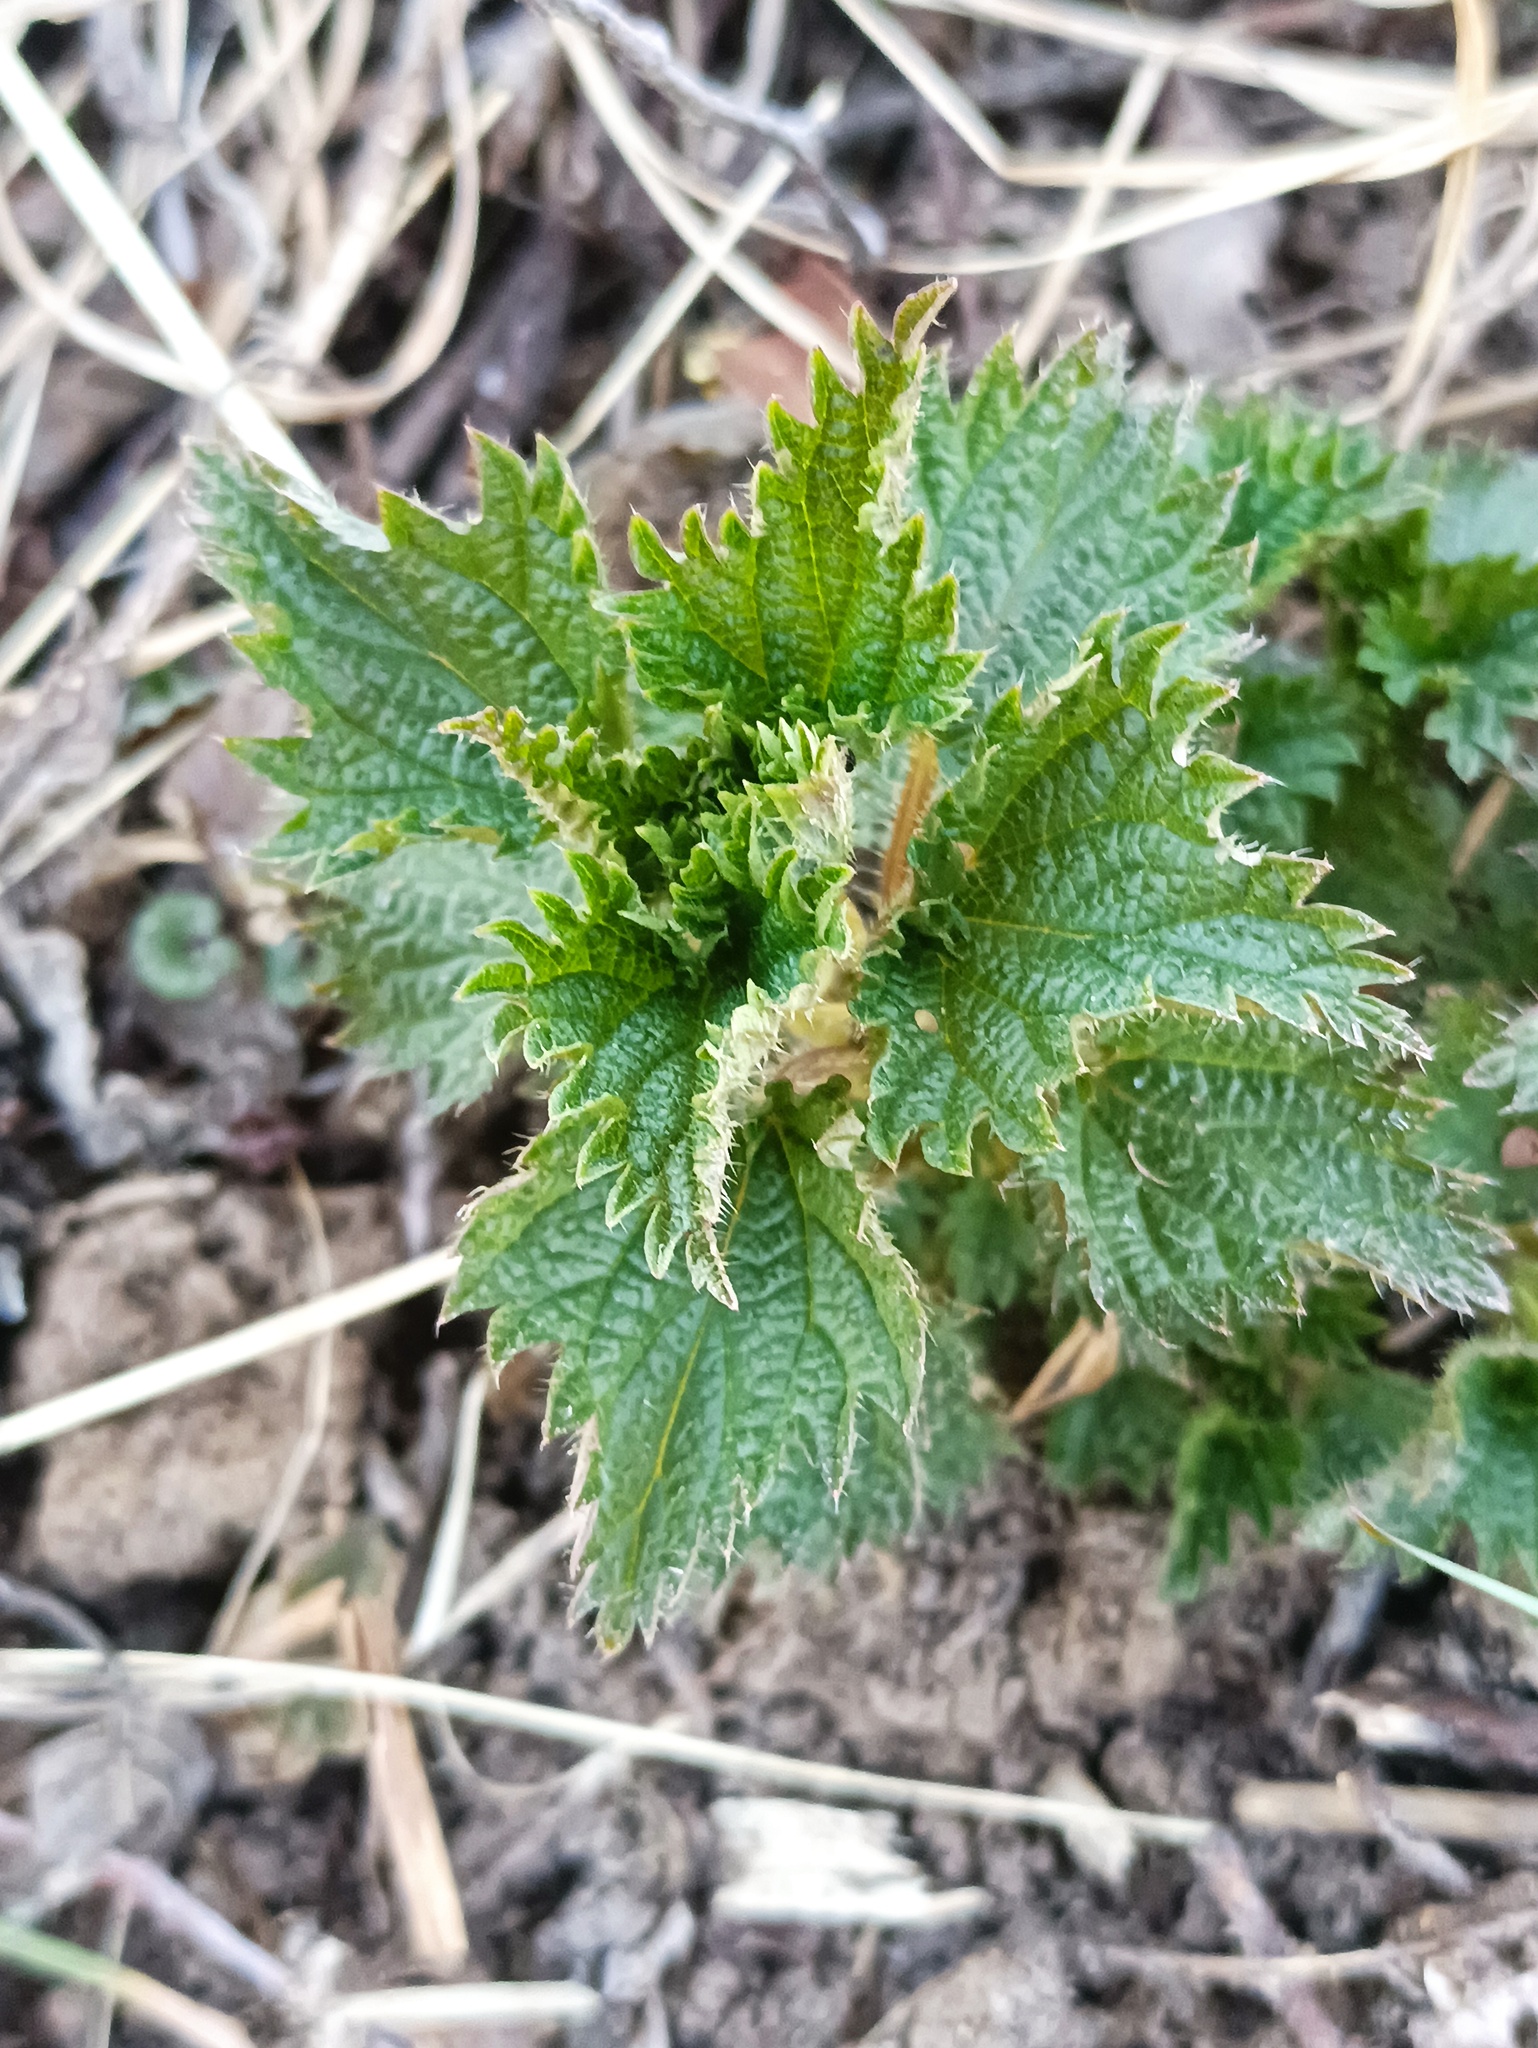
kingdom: Plantae
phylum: Tracheophyta
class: Magnoliopsida
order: Rosales
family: Urticaceae
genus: Urtica
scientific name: Urtica dioica
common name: Common nettle
